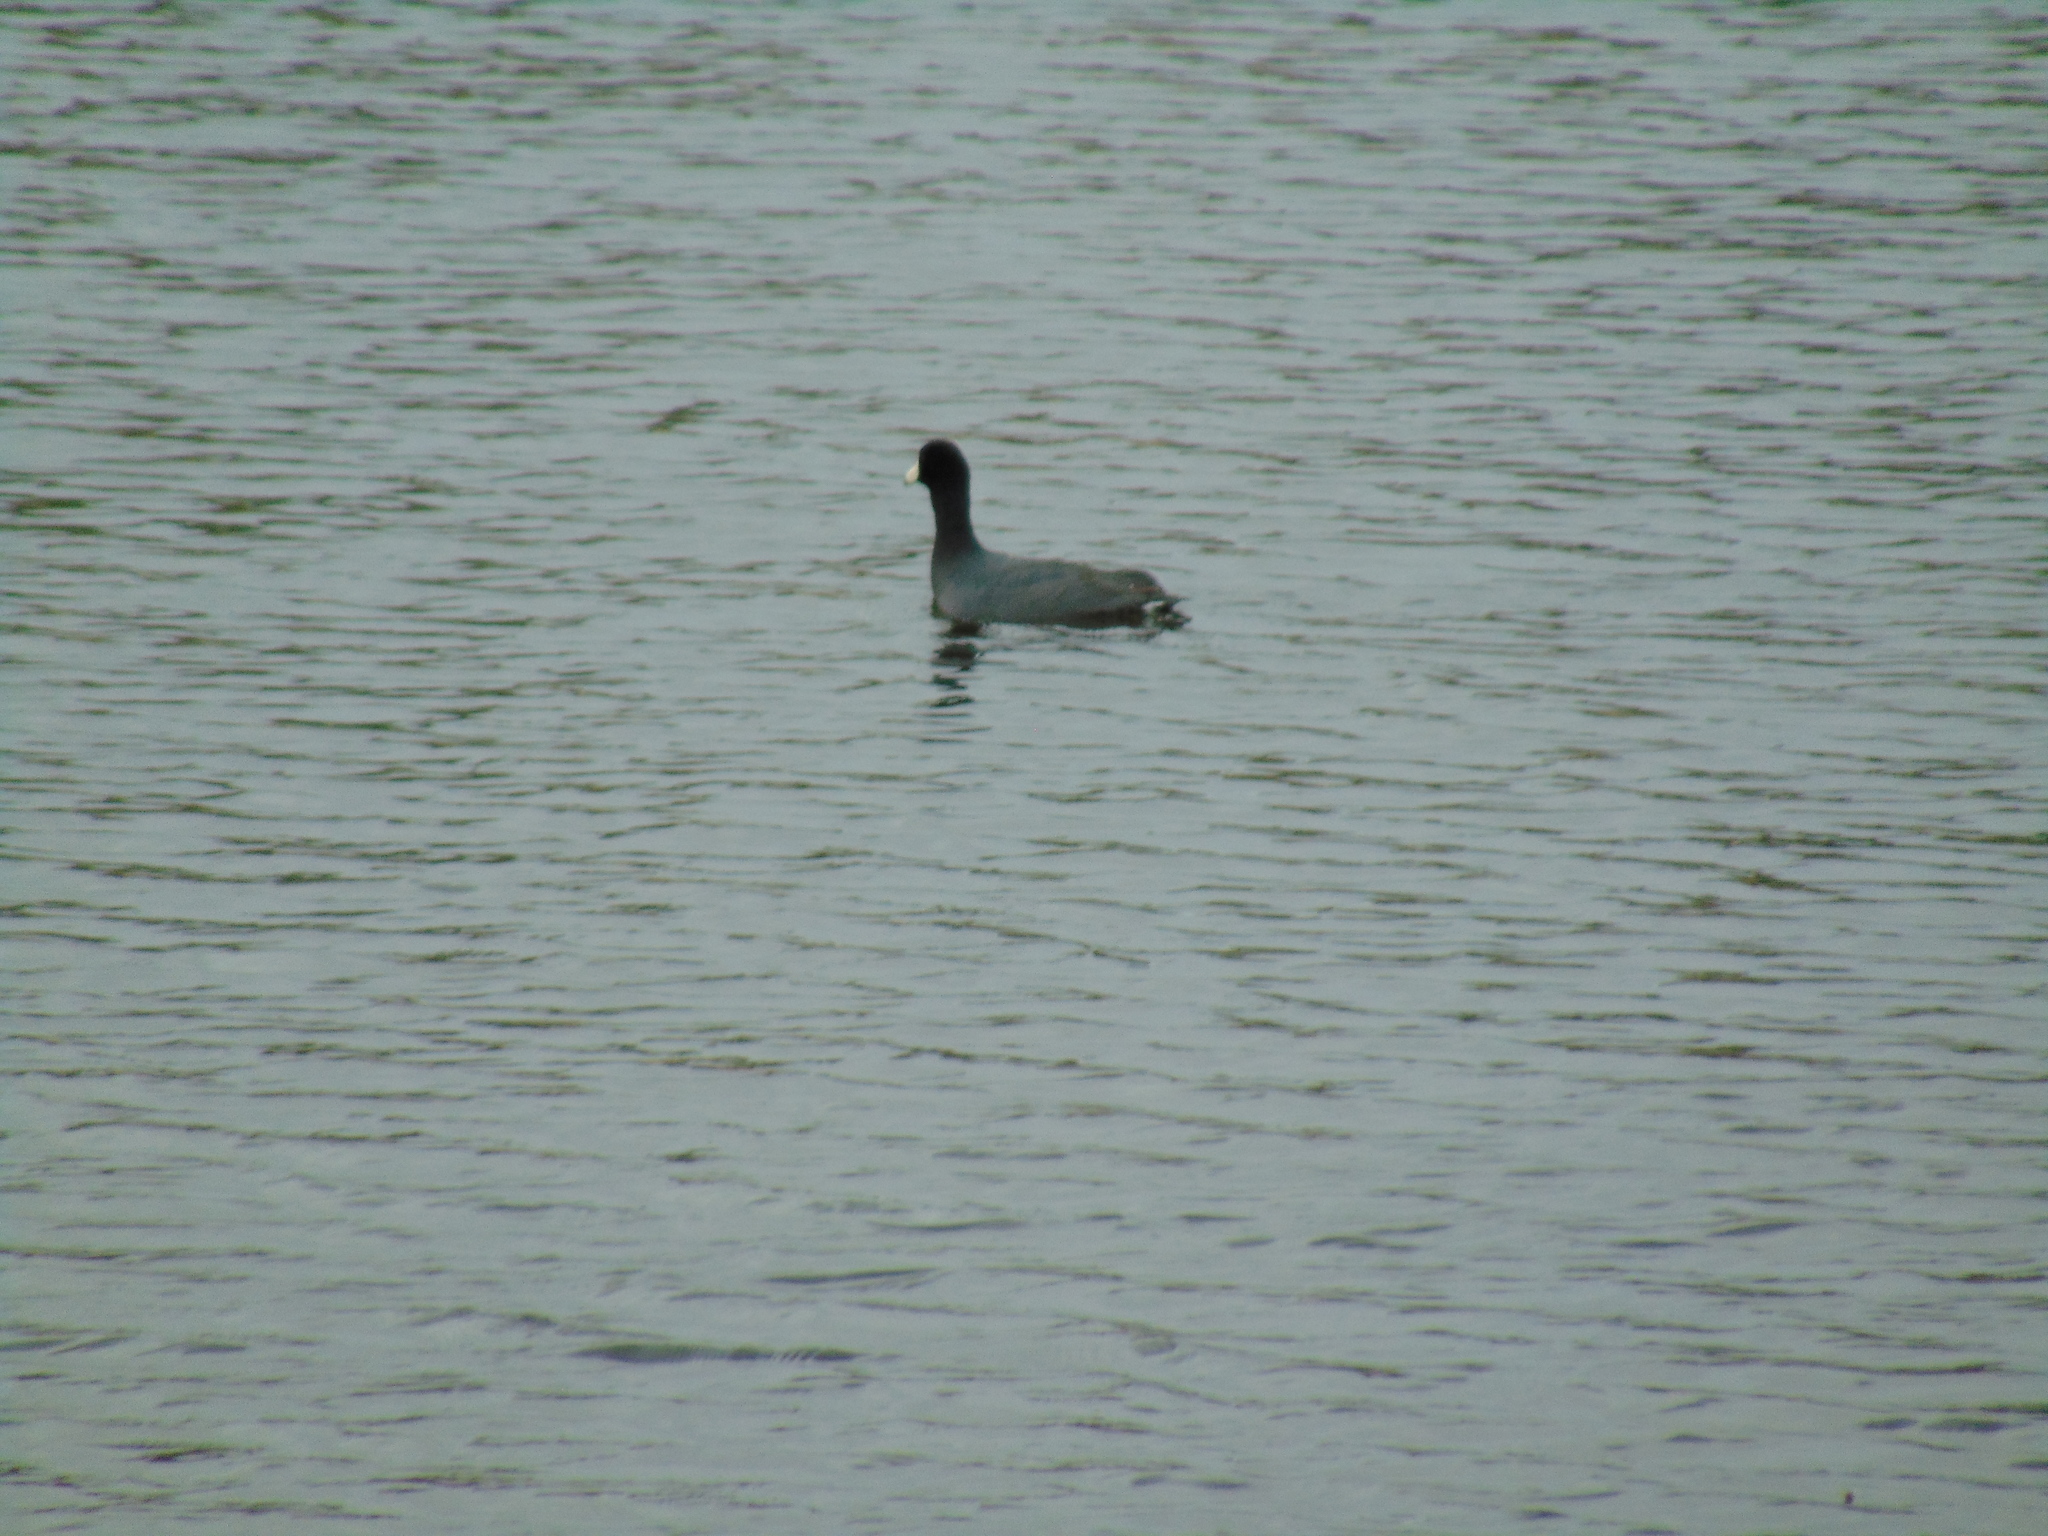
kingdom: Animalia
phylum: Chordata
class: Aves
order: Gruiformes
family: Rallidae
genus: Fulica
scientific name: Fulica americana
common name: American coot
